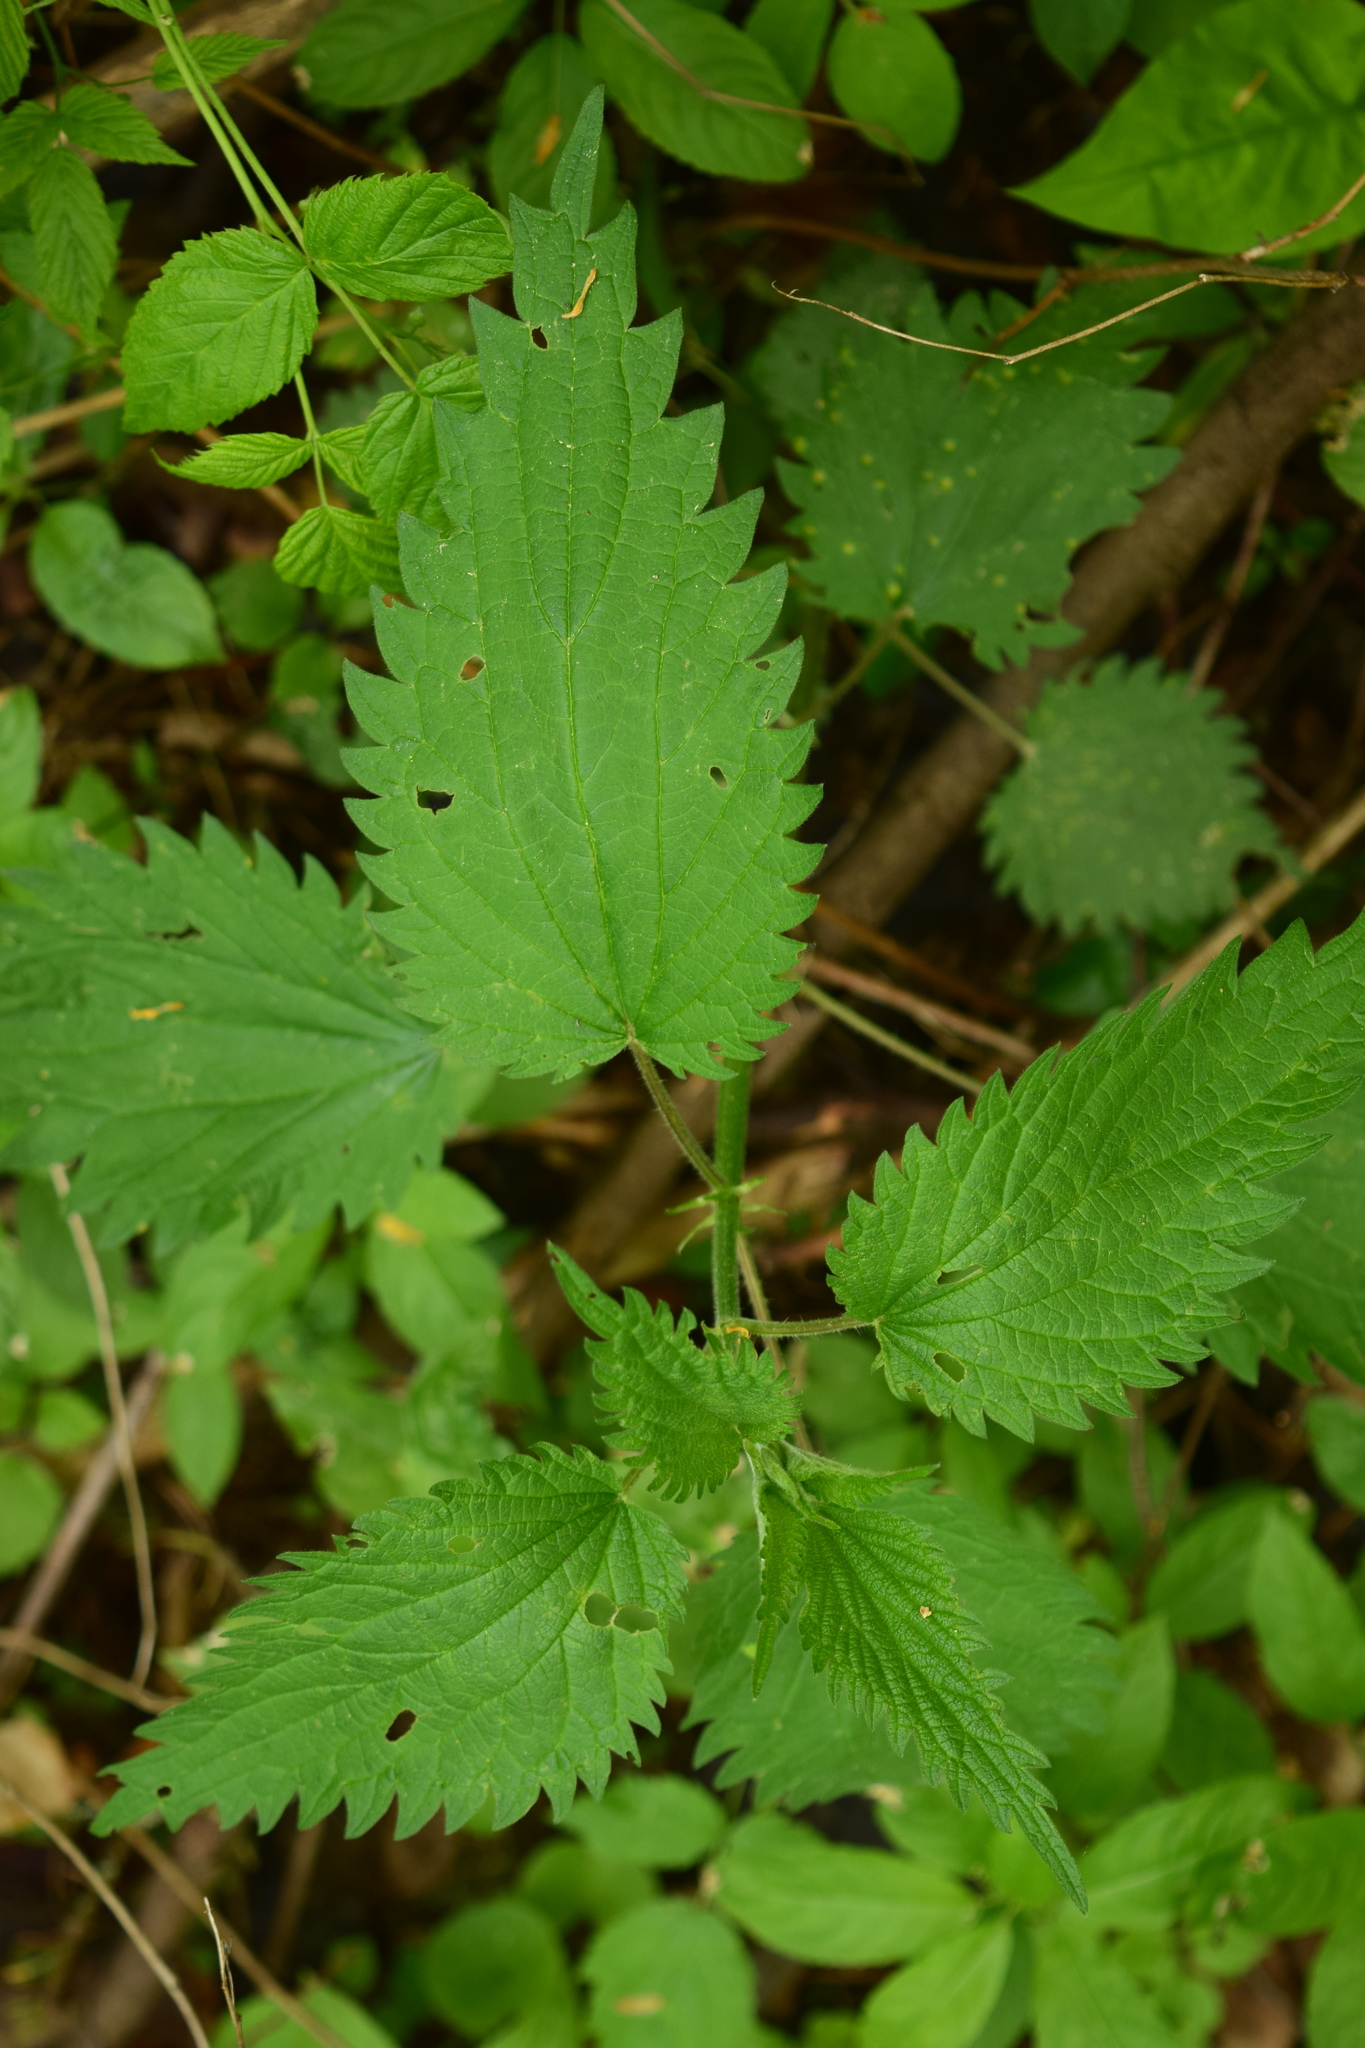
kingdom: Plantae
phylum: Tracheophyta
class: Magnoliopsida
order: Rosales
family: Urticaceae
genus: Urtica
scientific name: Urtica dioica
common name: Common nettle
